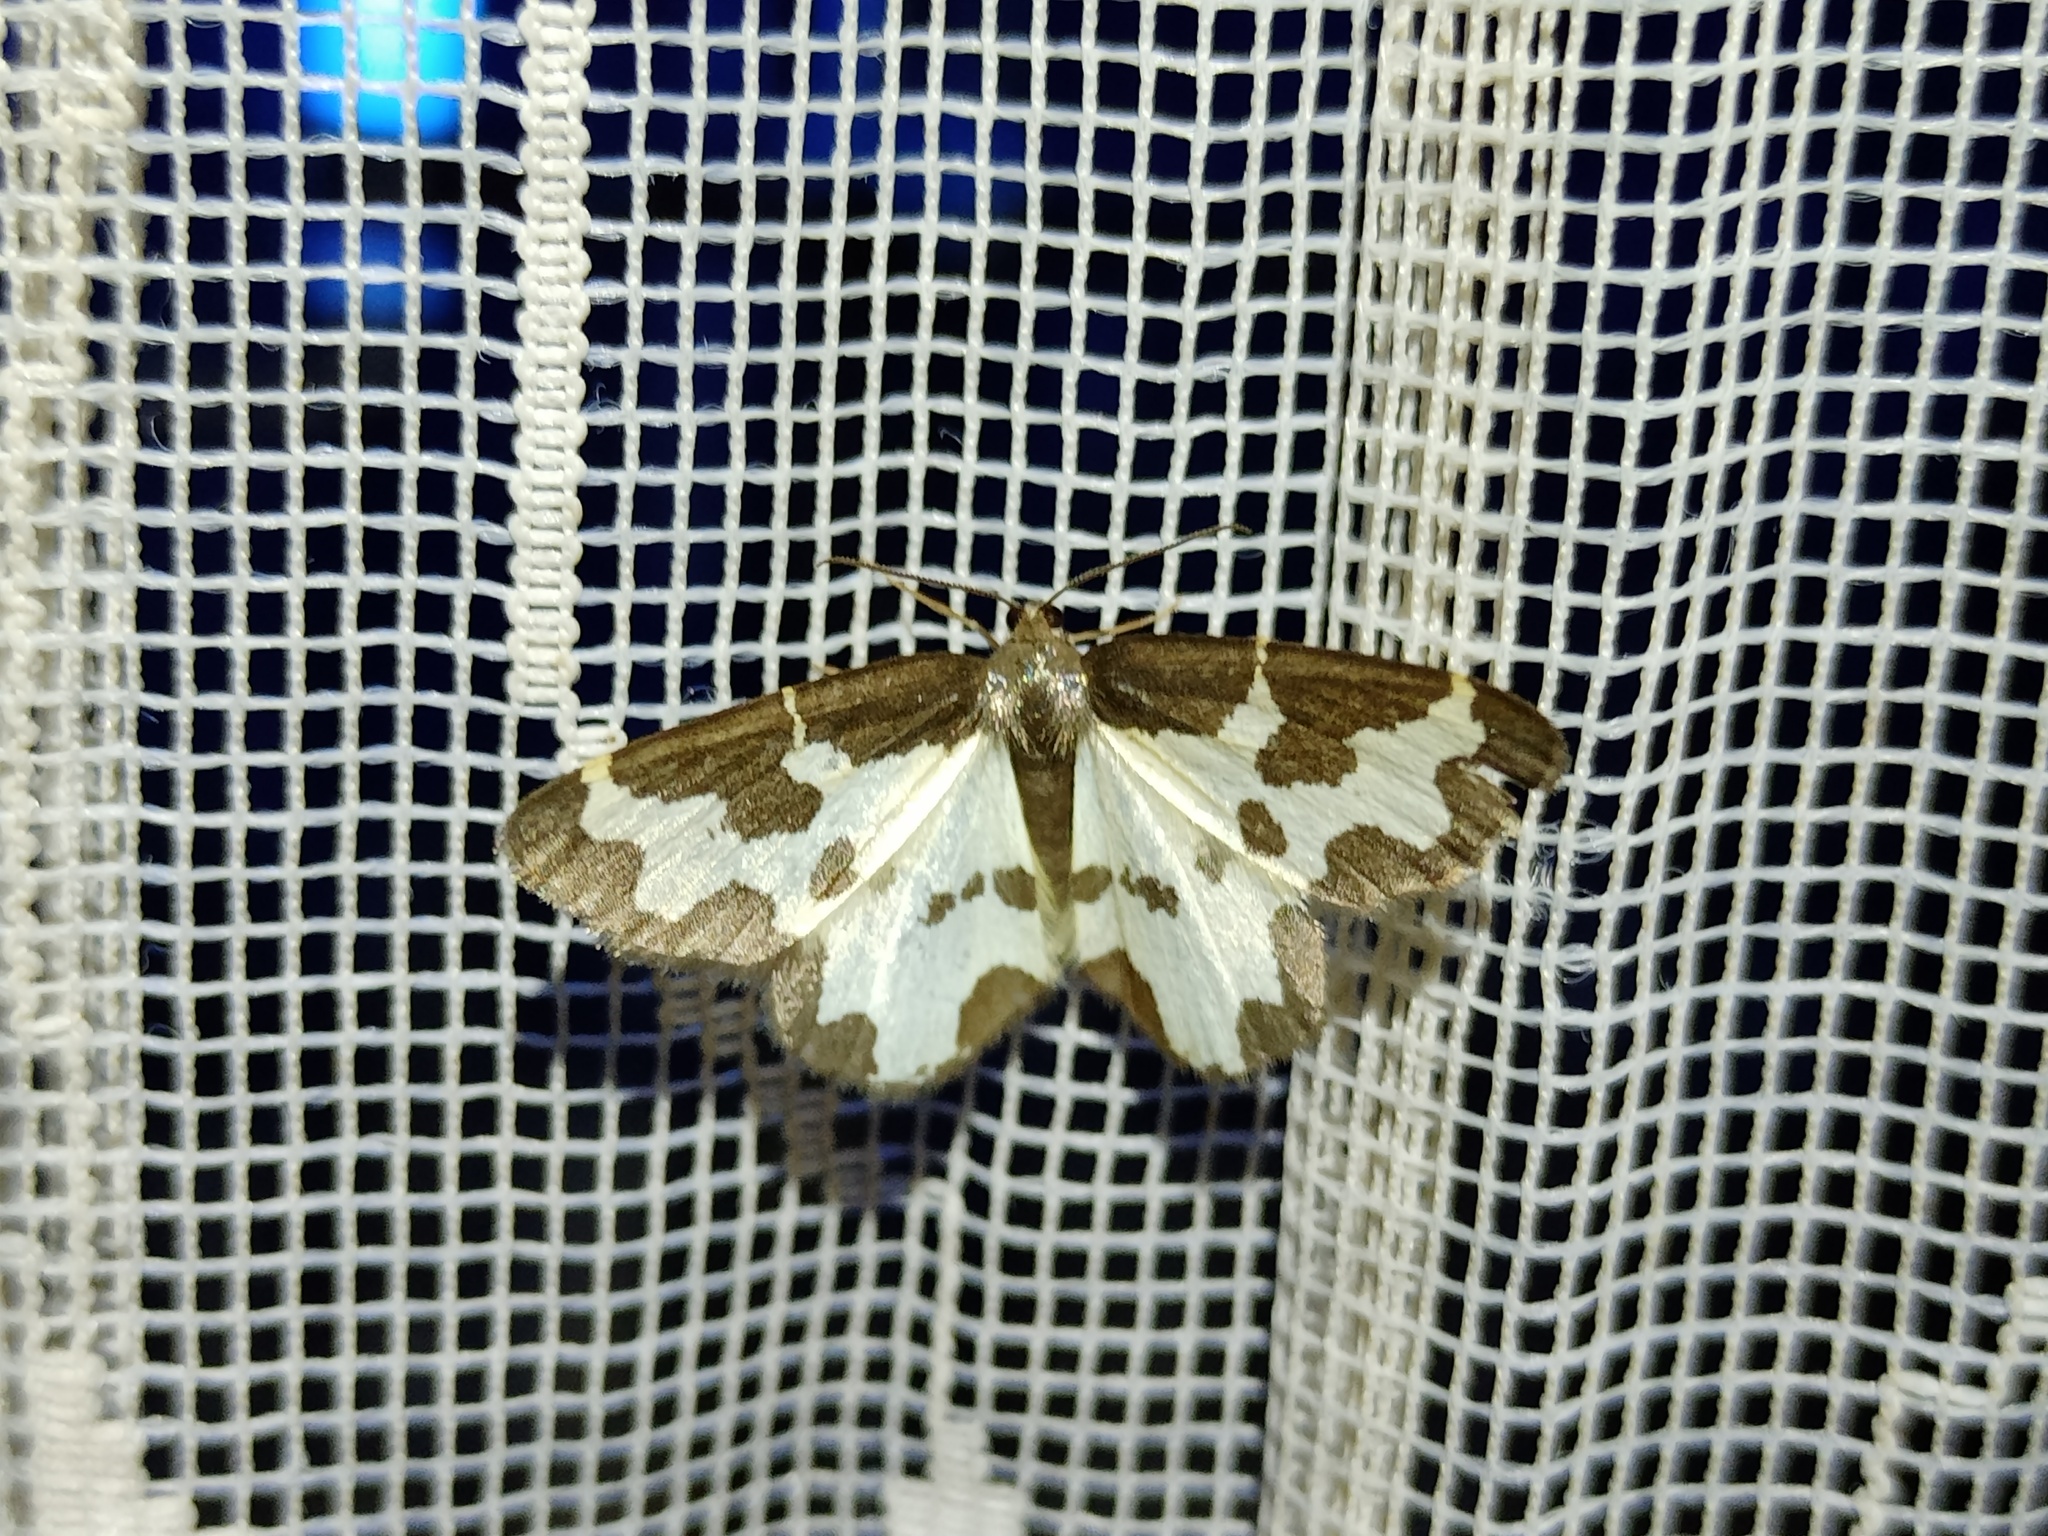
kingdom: Animalia
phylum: Arthropoda
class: Insecta
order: Lepidoptera
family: Geometridae
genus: Lomaspilis
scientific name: Lomaspilis marginata
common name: Clouded border
